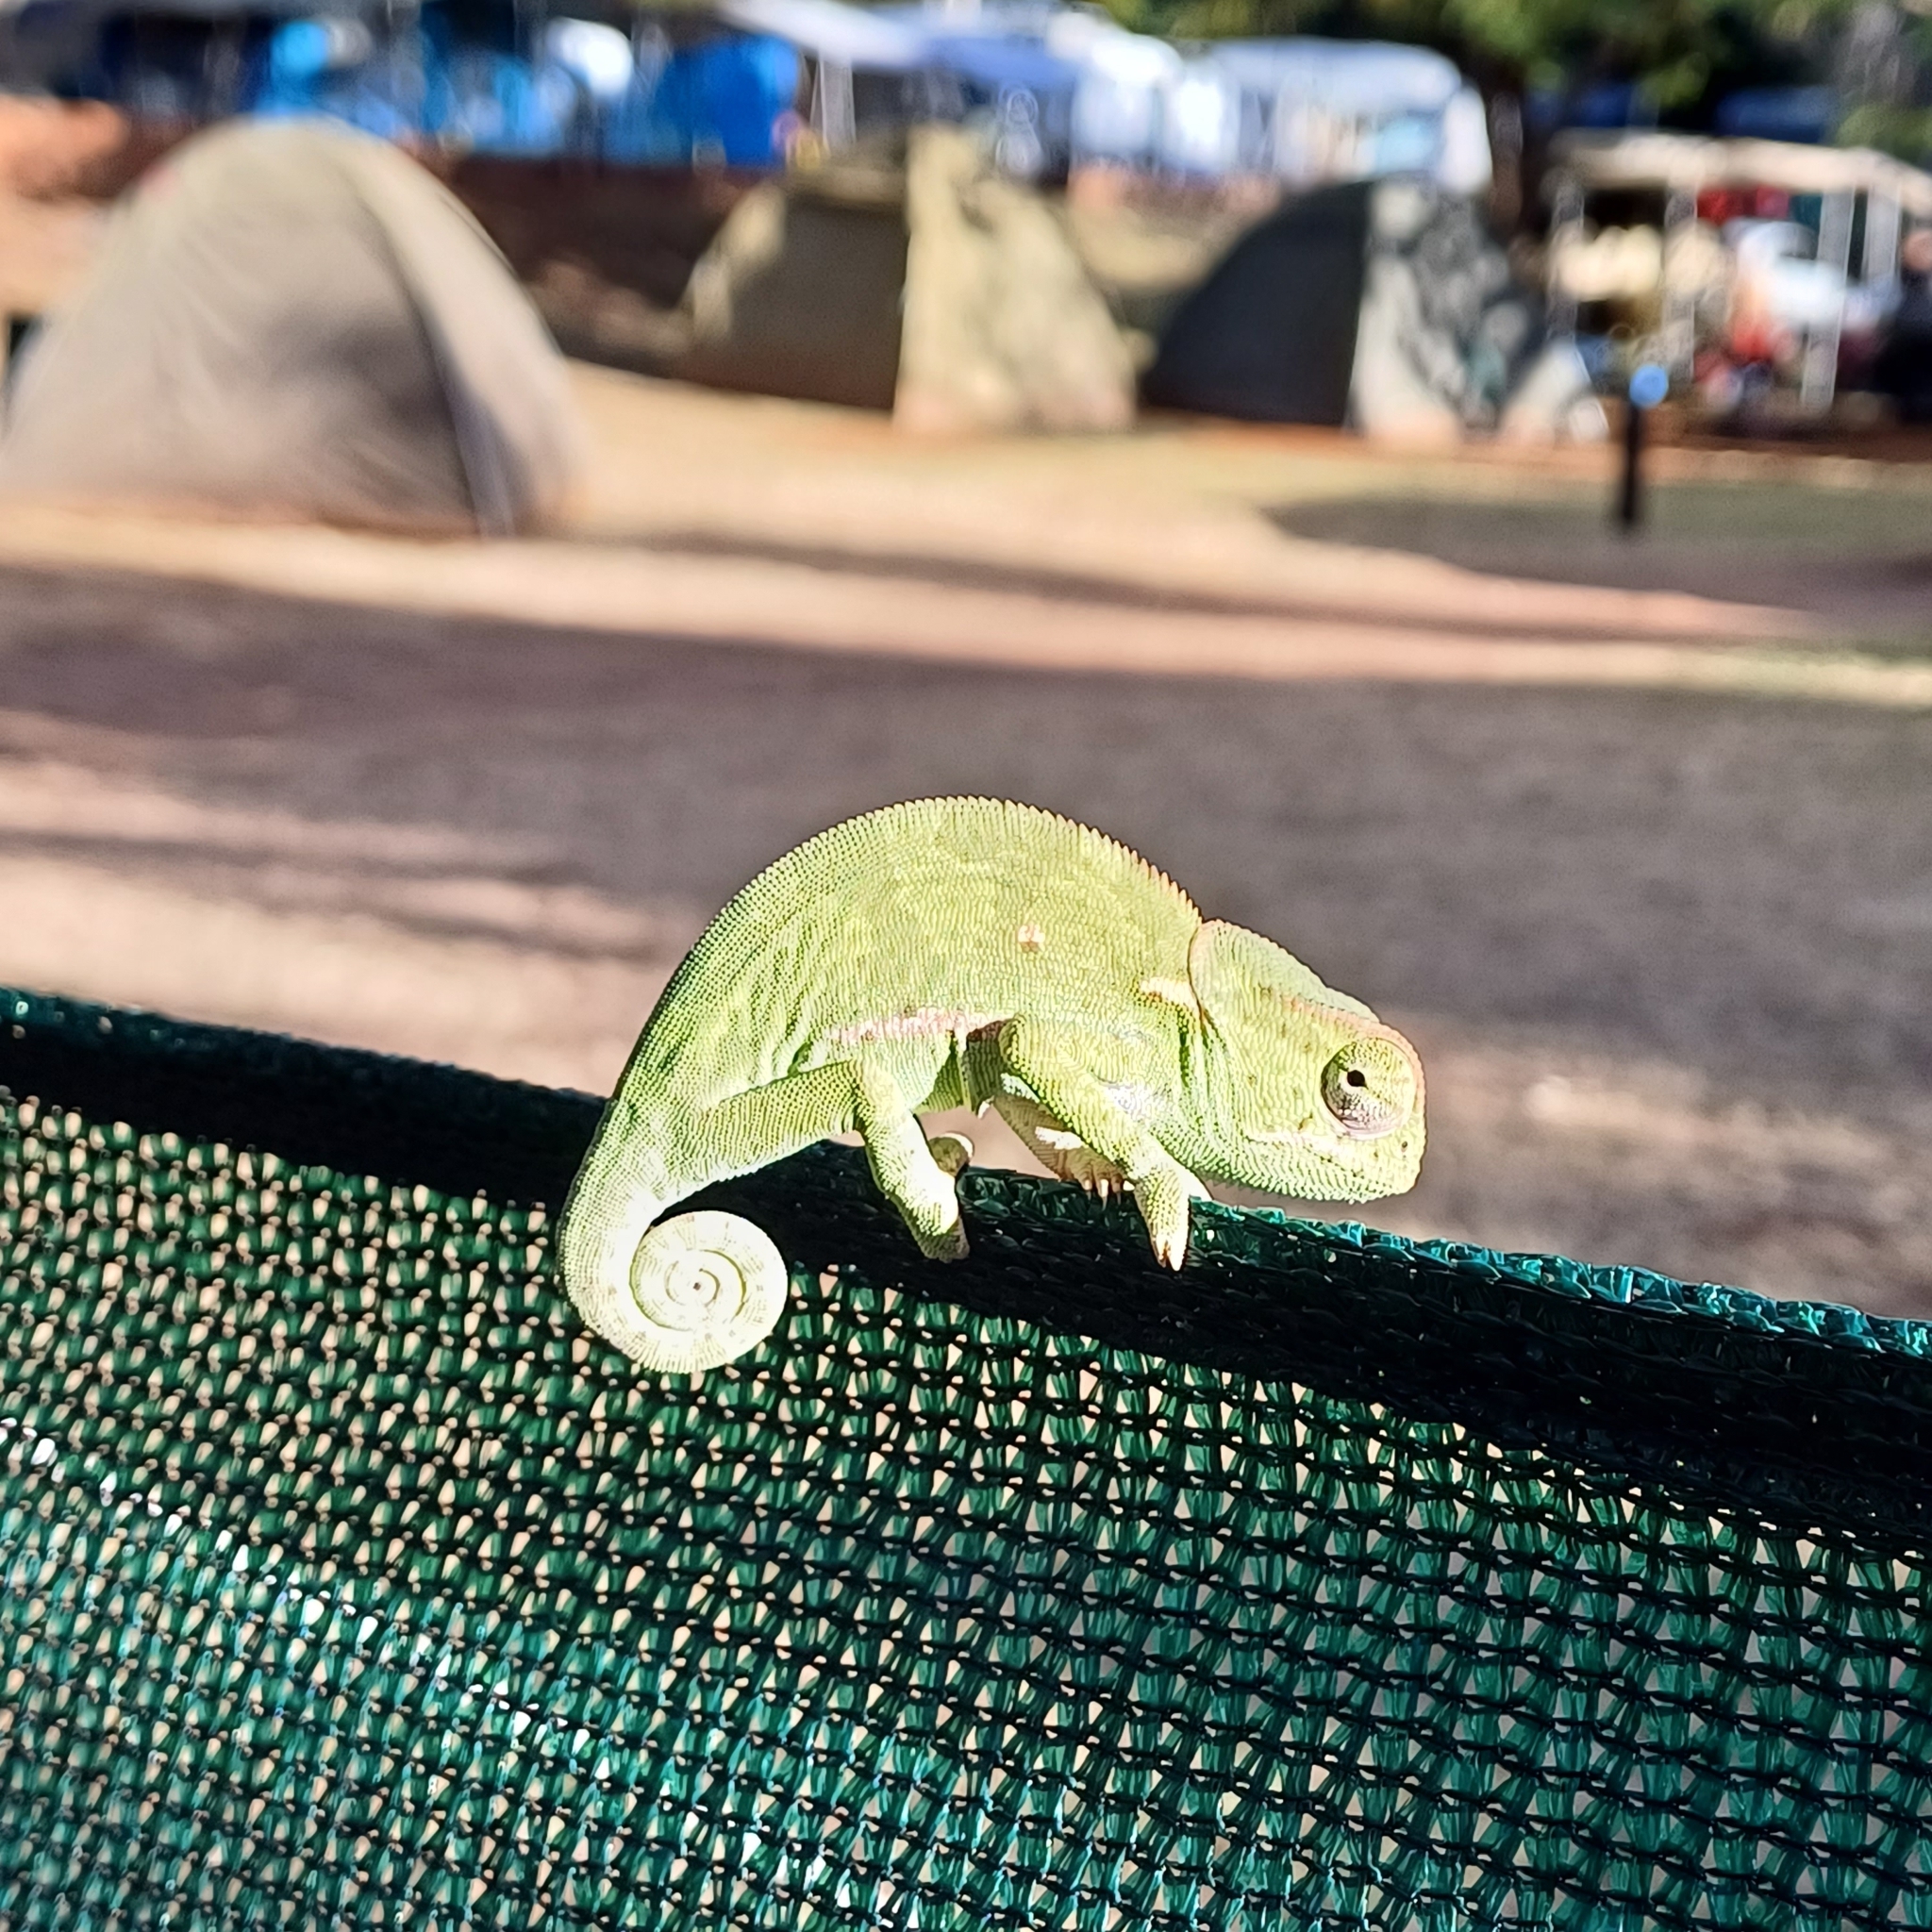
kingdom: Animalia
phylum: Chordata
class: Squamata
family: Chamaeleonidae
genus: Chamaeleo
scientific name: Chamaeleo dilepis
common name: Flapneck chameleon
